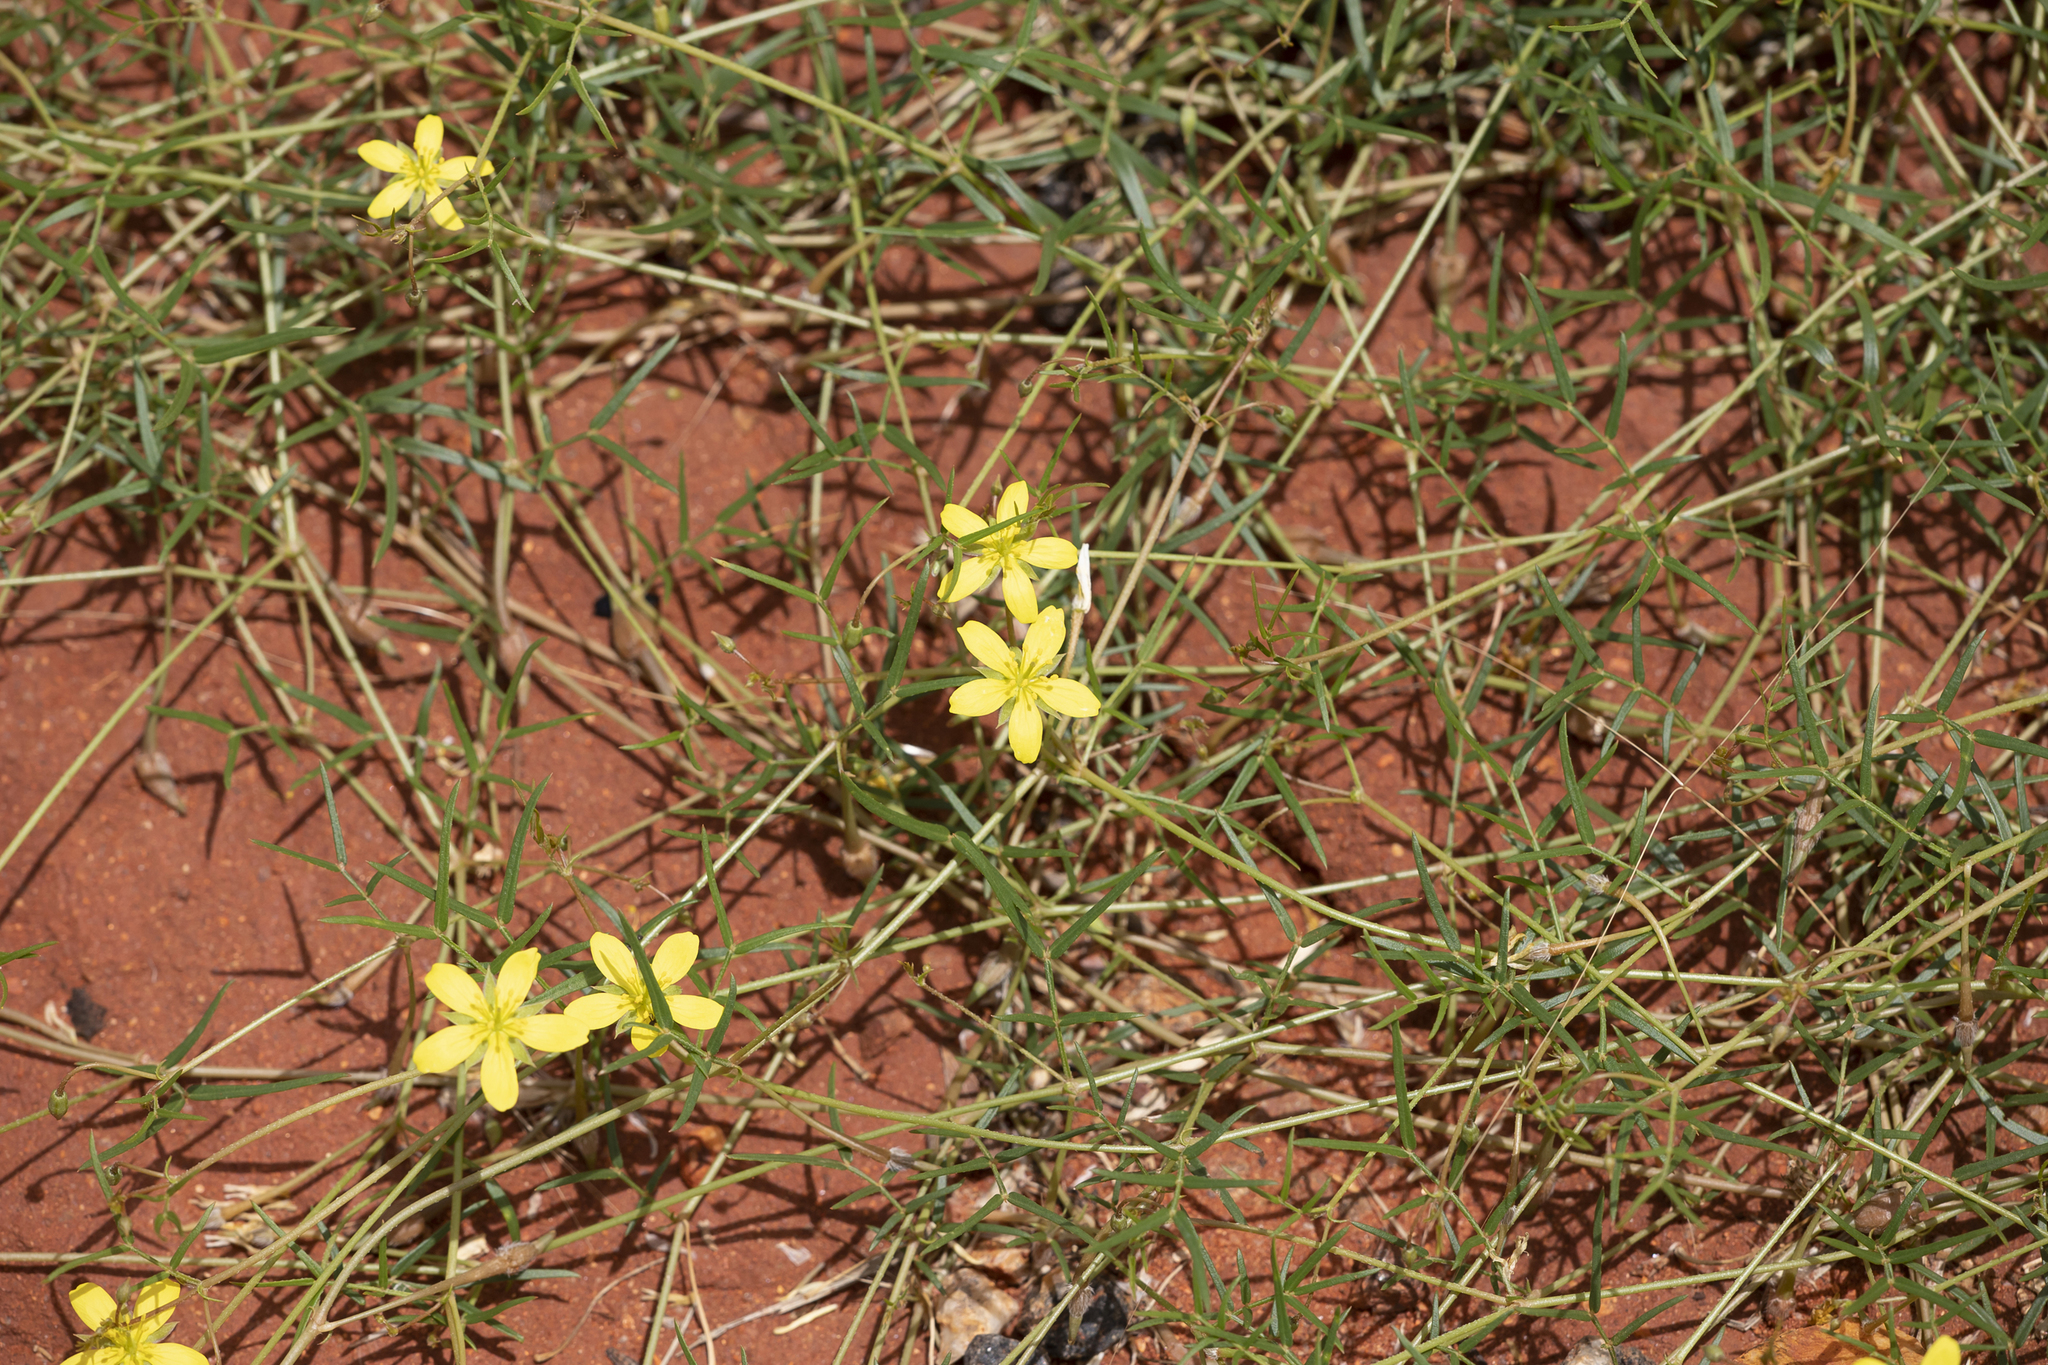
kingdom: Plantae
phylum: Tracheophyta
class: Magnoliopsida
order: Zygophyllales
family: Zygophyllaceae
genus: Tribulopis
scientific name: Tribulopis angustifolia
